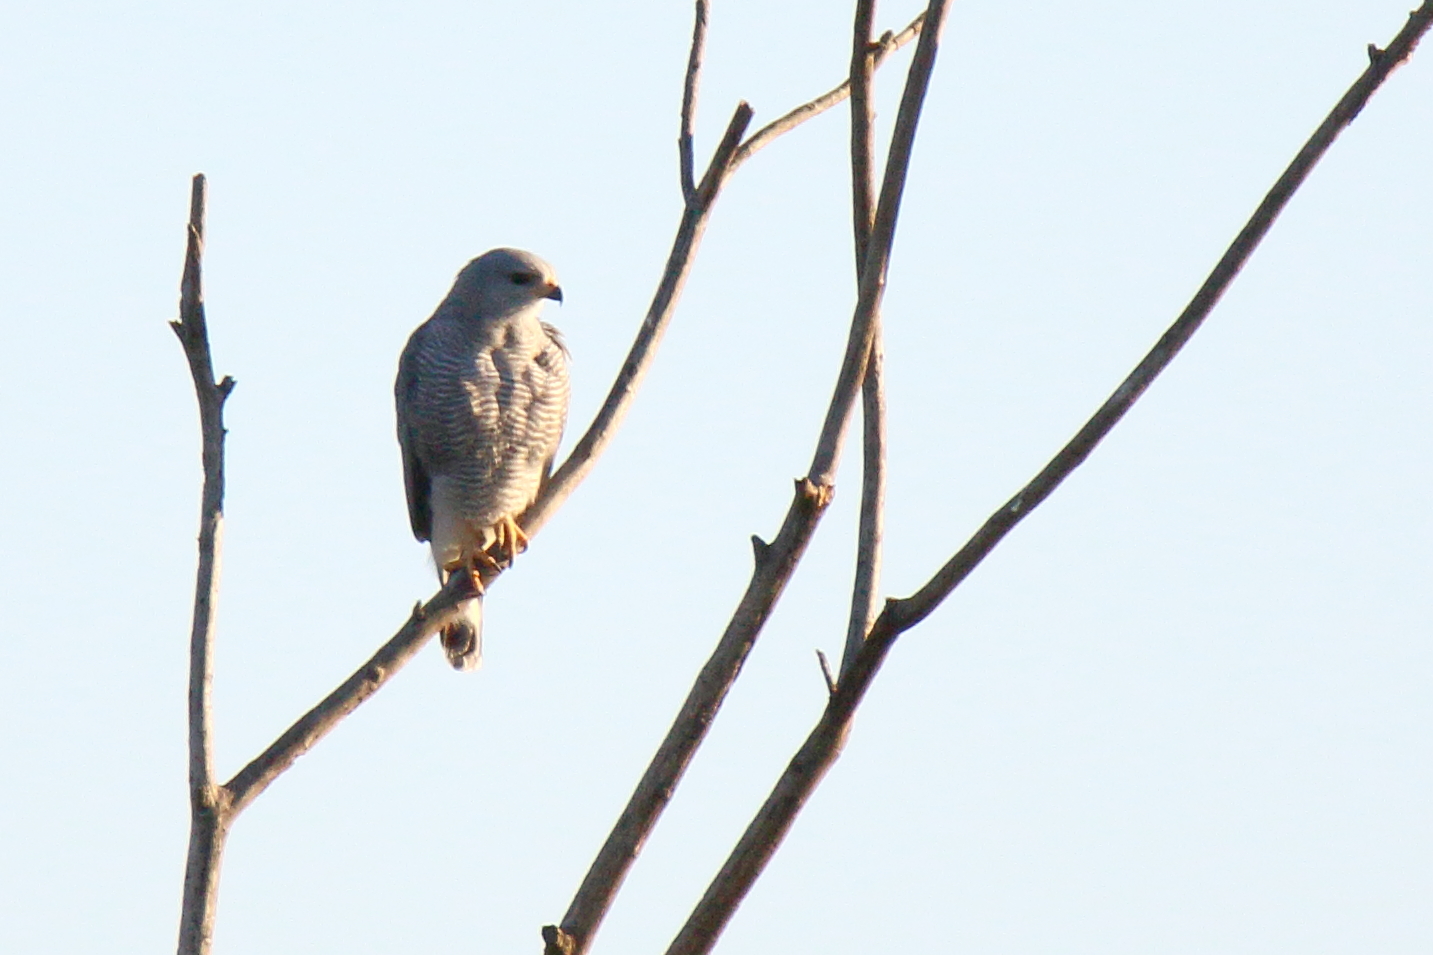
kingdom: Animalia
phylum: Chordata
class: Aves
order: Accipitriformes
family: Accipitridae
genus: Buteo
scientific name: Buteo nitidus
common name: Grey-lined hawk
